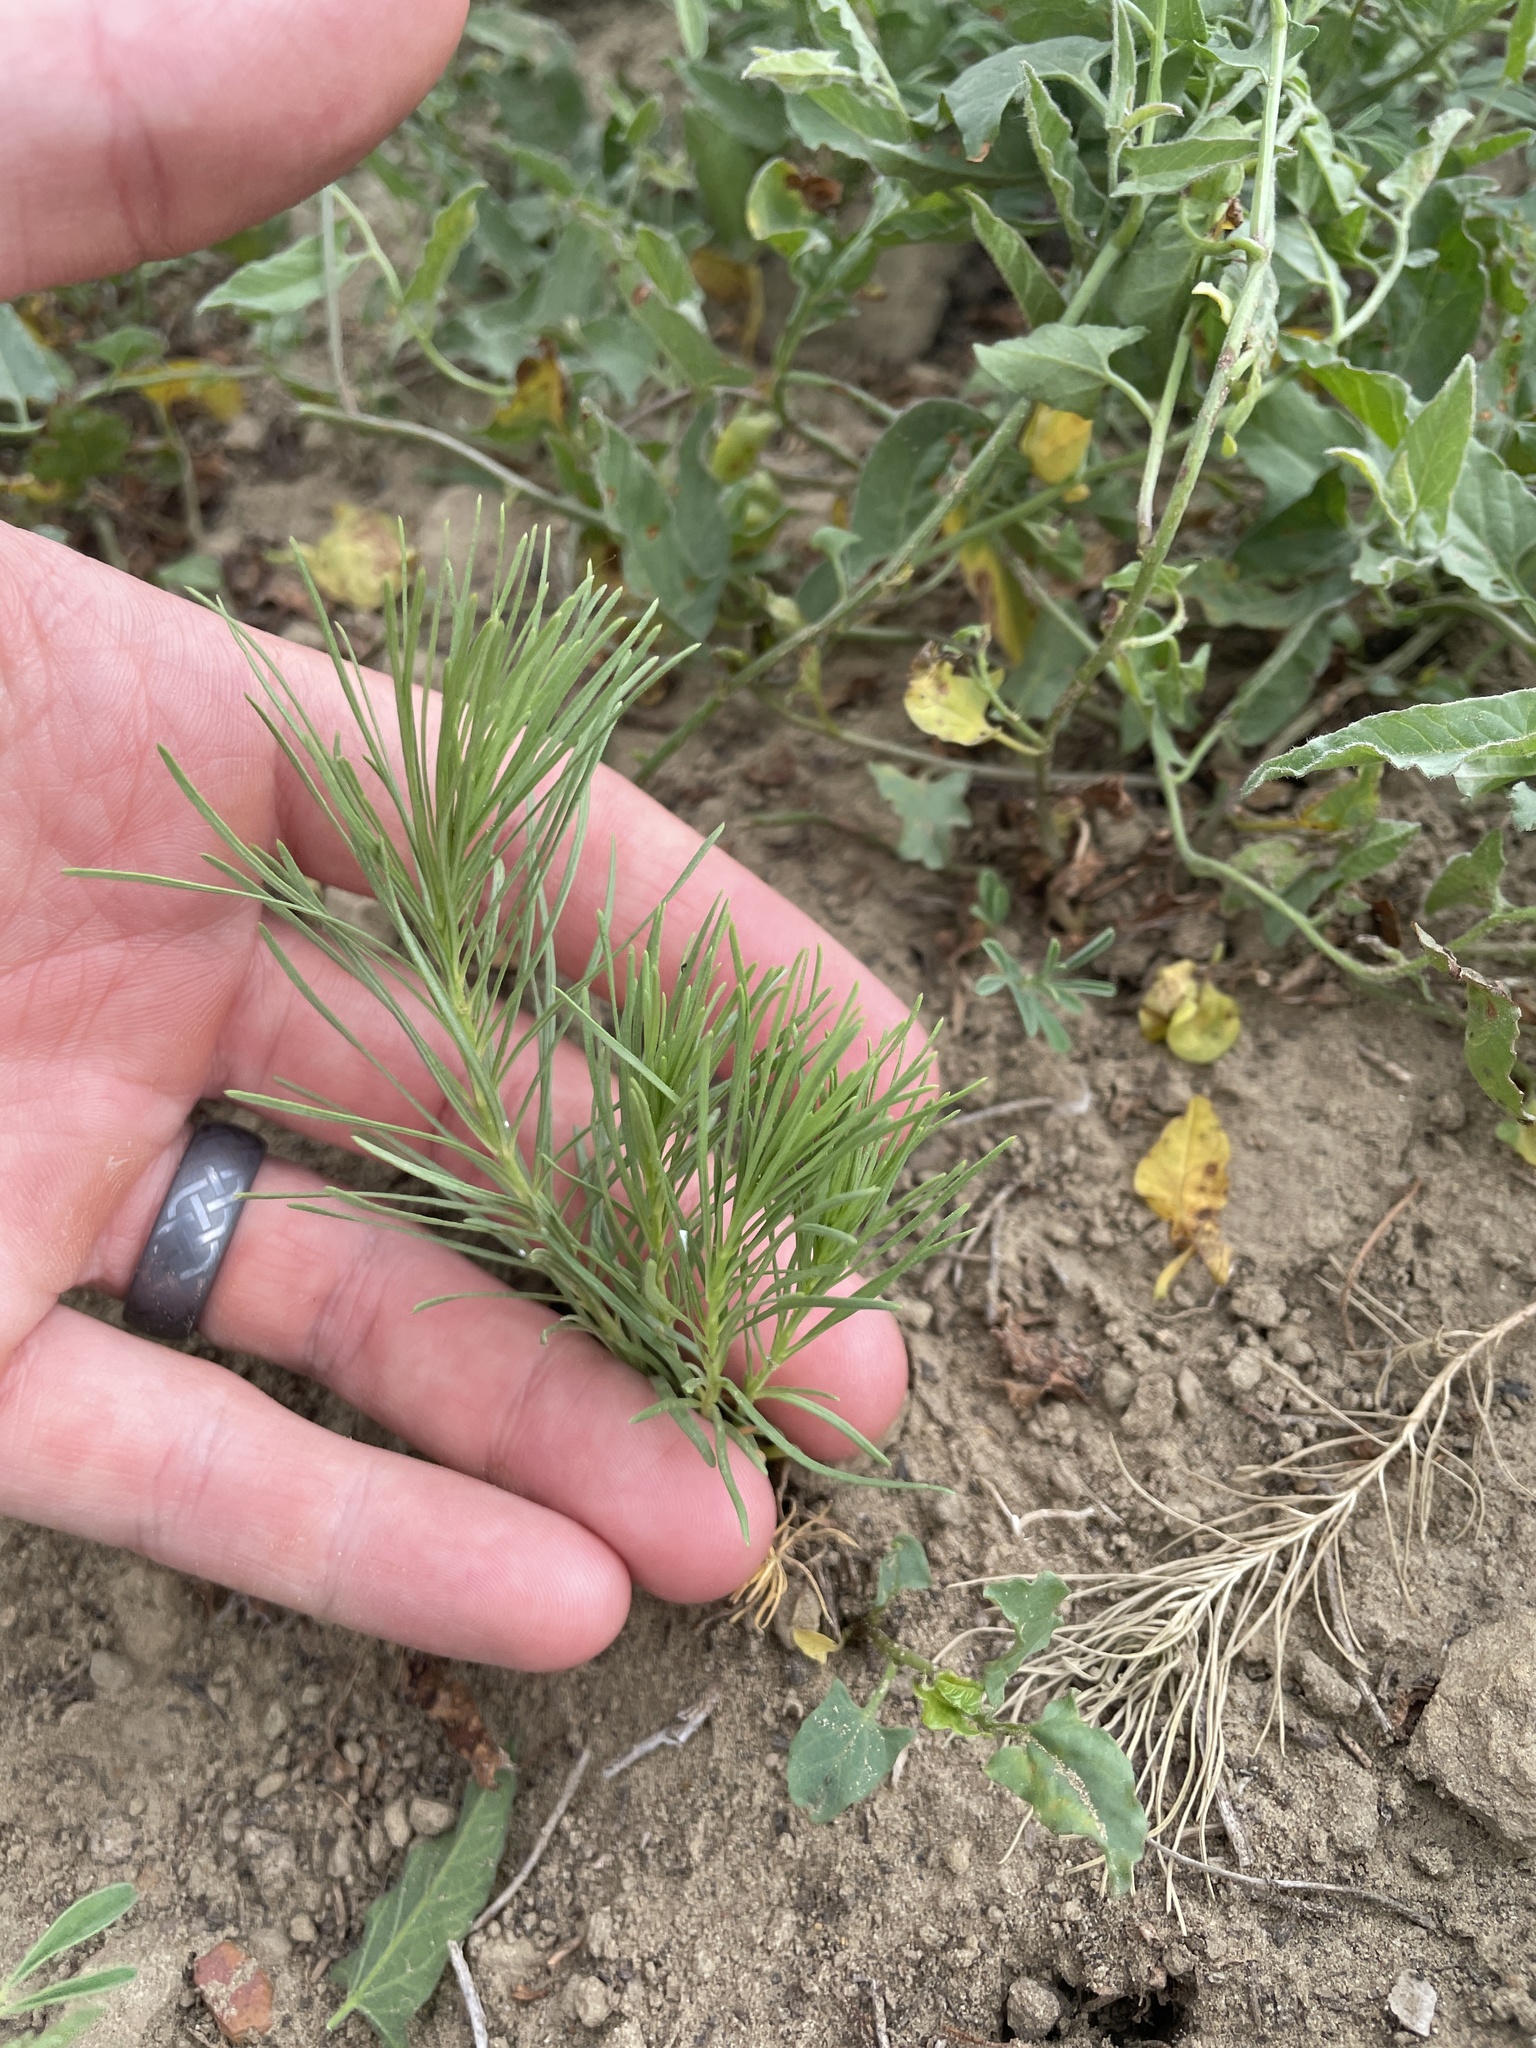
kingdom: Plantae
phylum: Tracheophyta
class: Magnoliopsida
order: Gentianales
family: Apocynaceae
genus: Asclepias
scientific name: Asclepias pumila
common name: Dwarf milkweed
